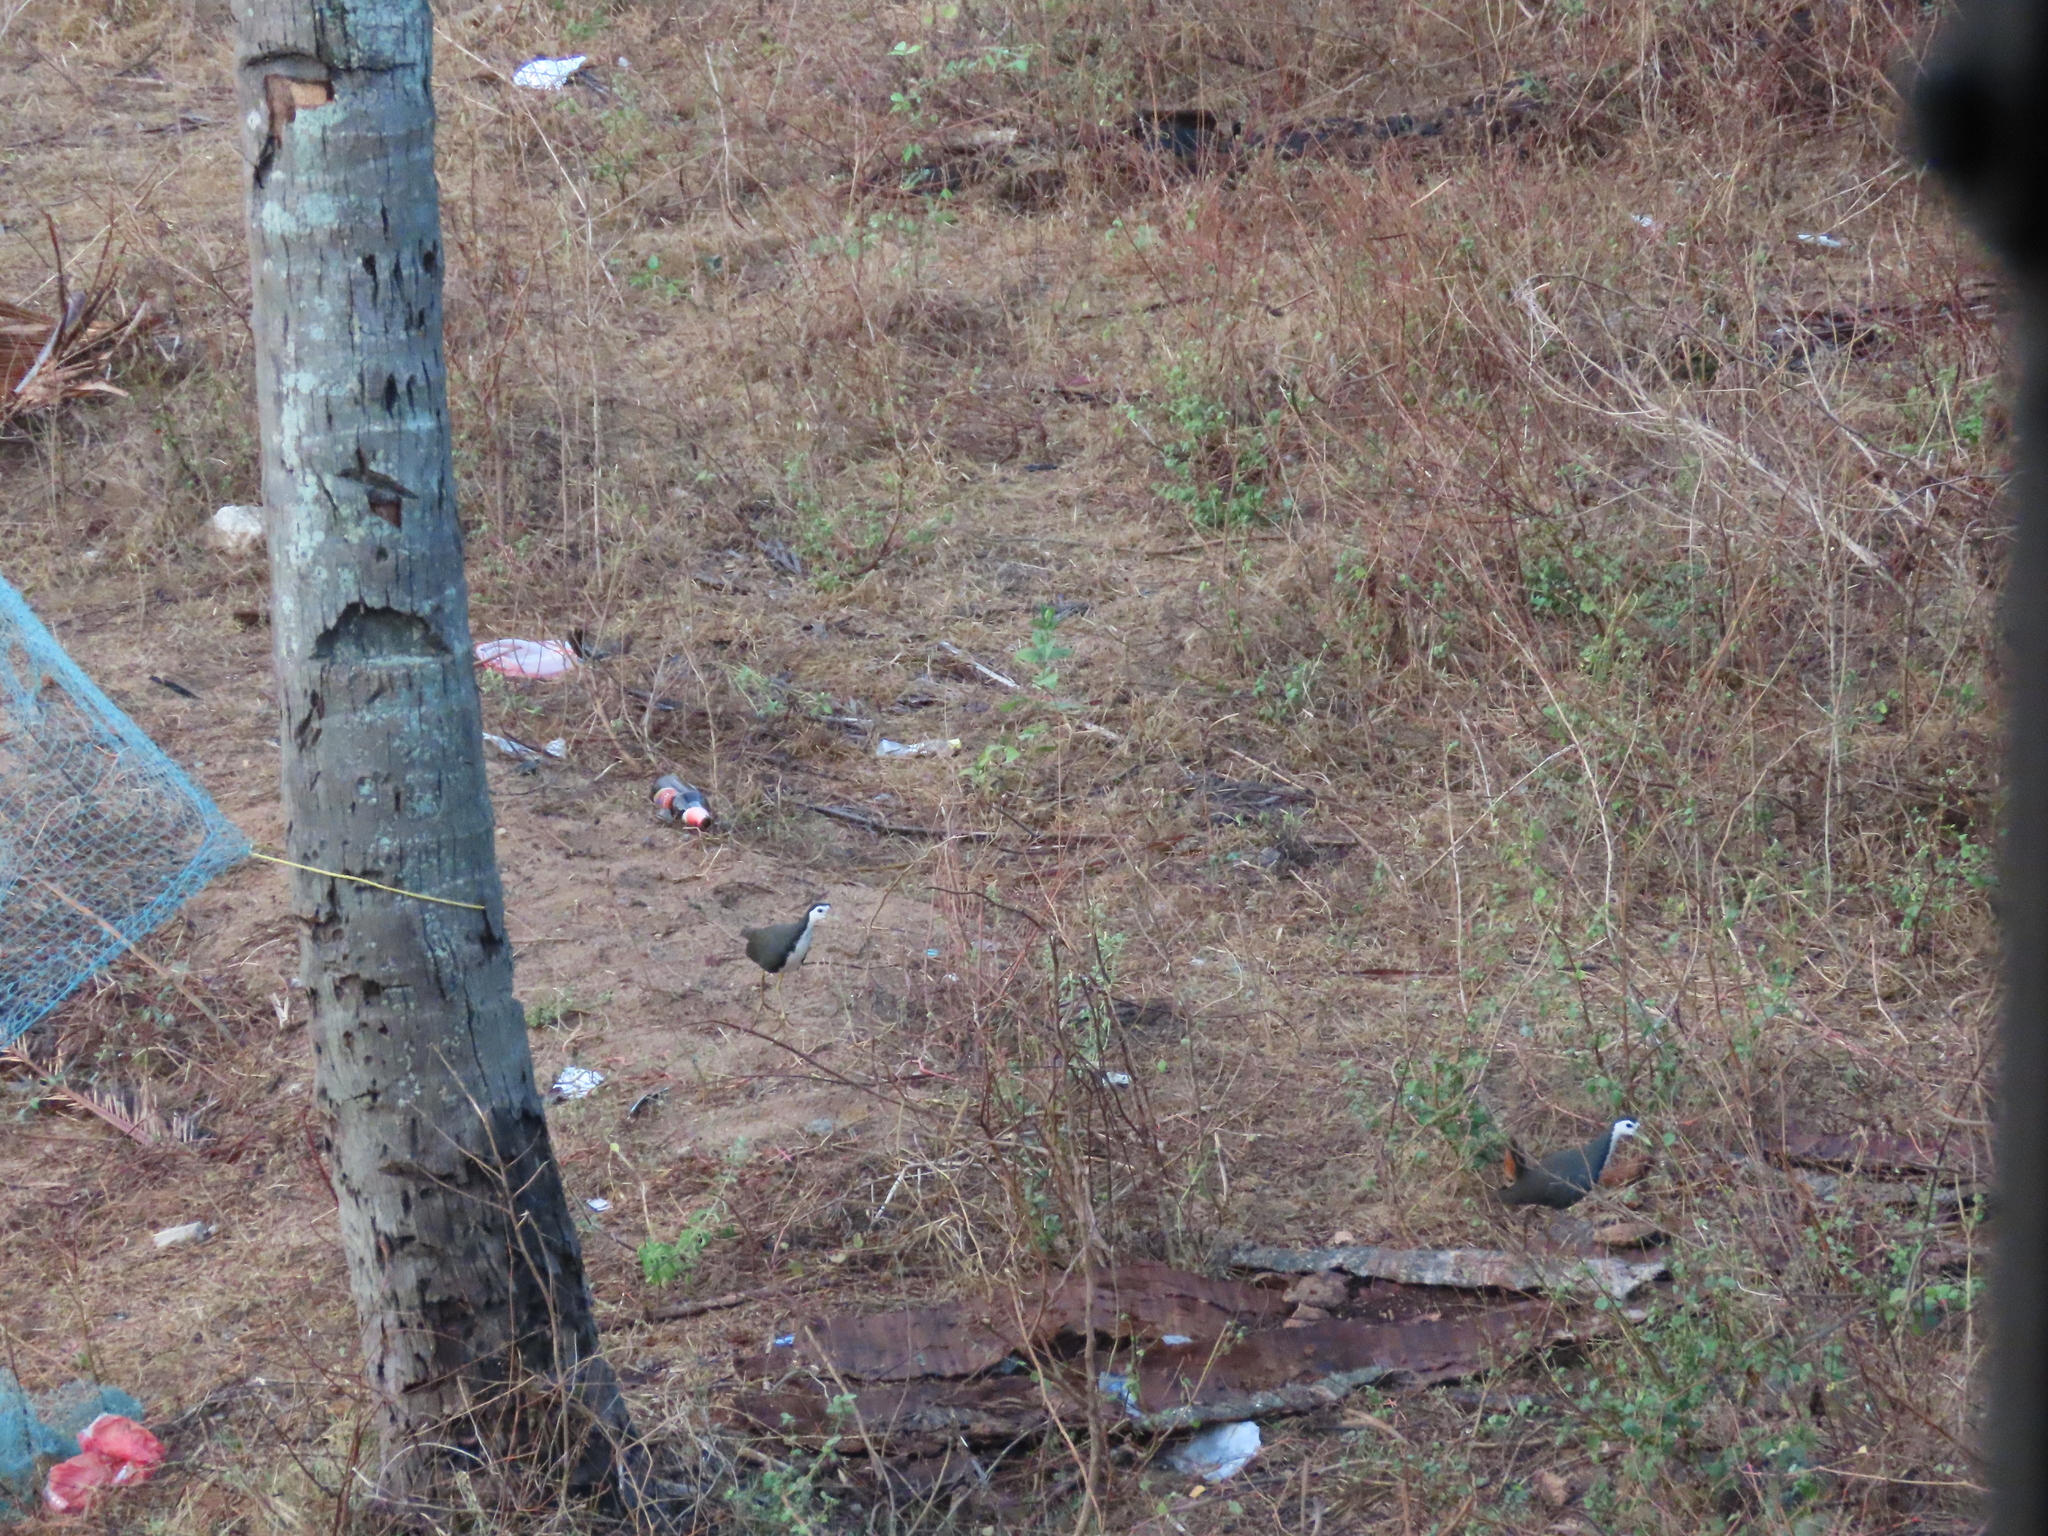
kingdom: Animalia
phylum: Chordata
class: Aves
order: Gruiformes
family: Rallidae
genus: Amaurornis
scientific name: Amaurornis phoenicurus
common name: White-breasted waterhen
